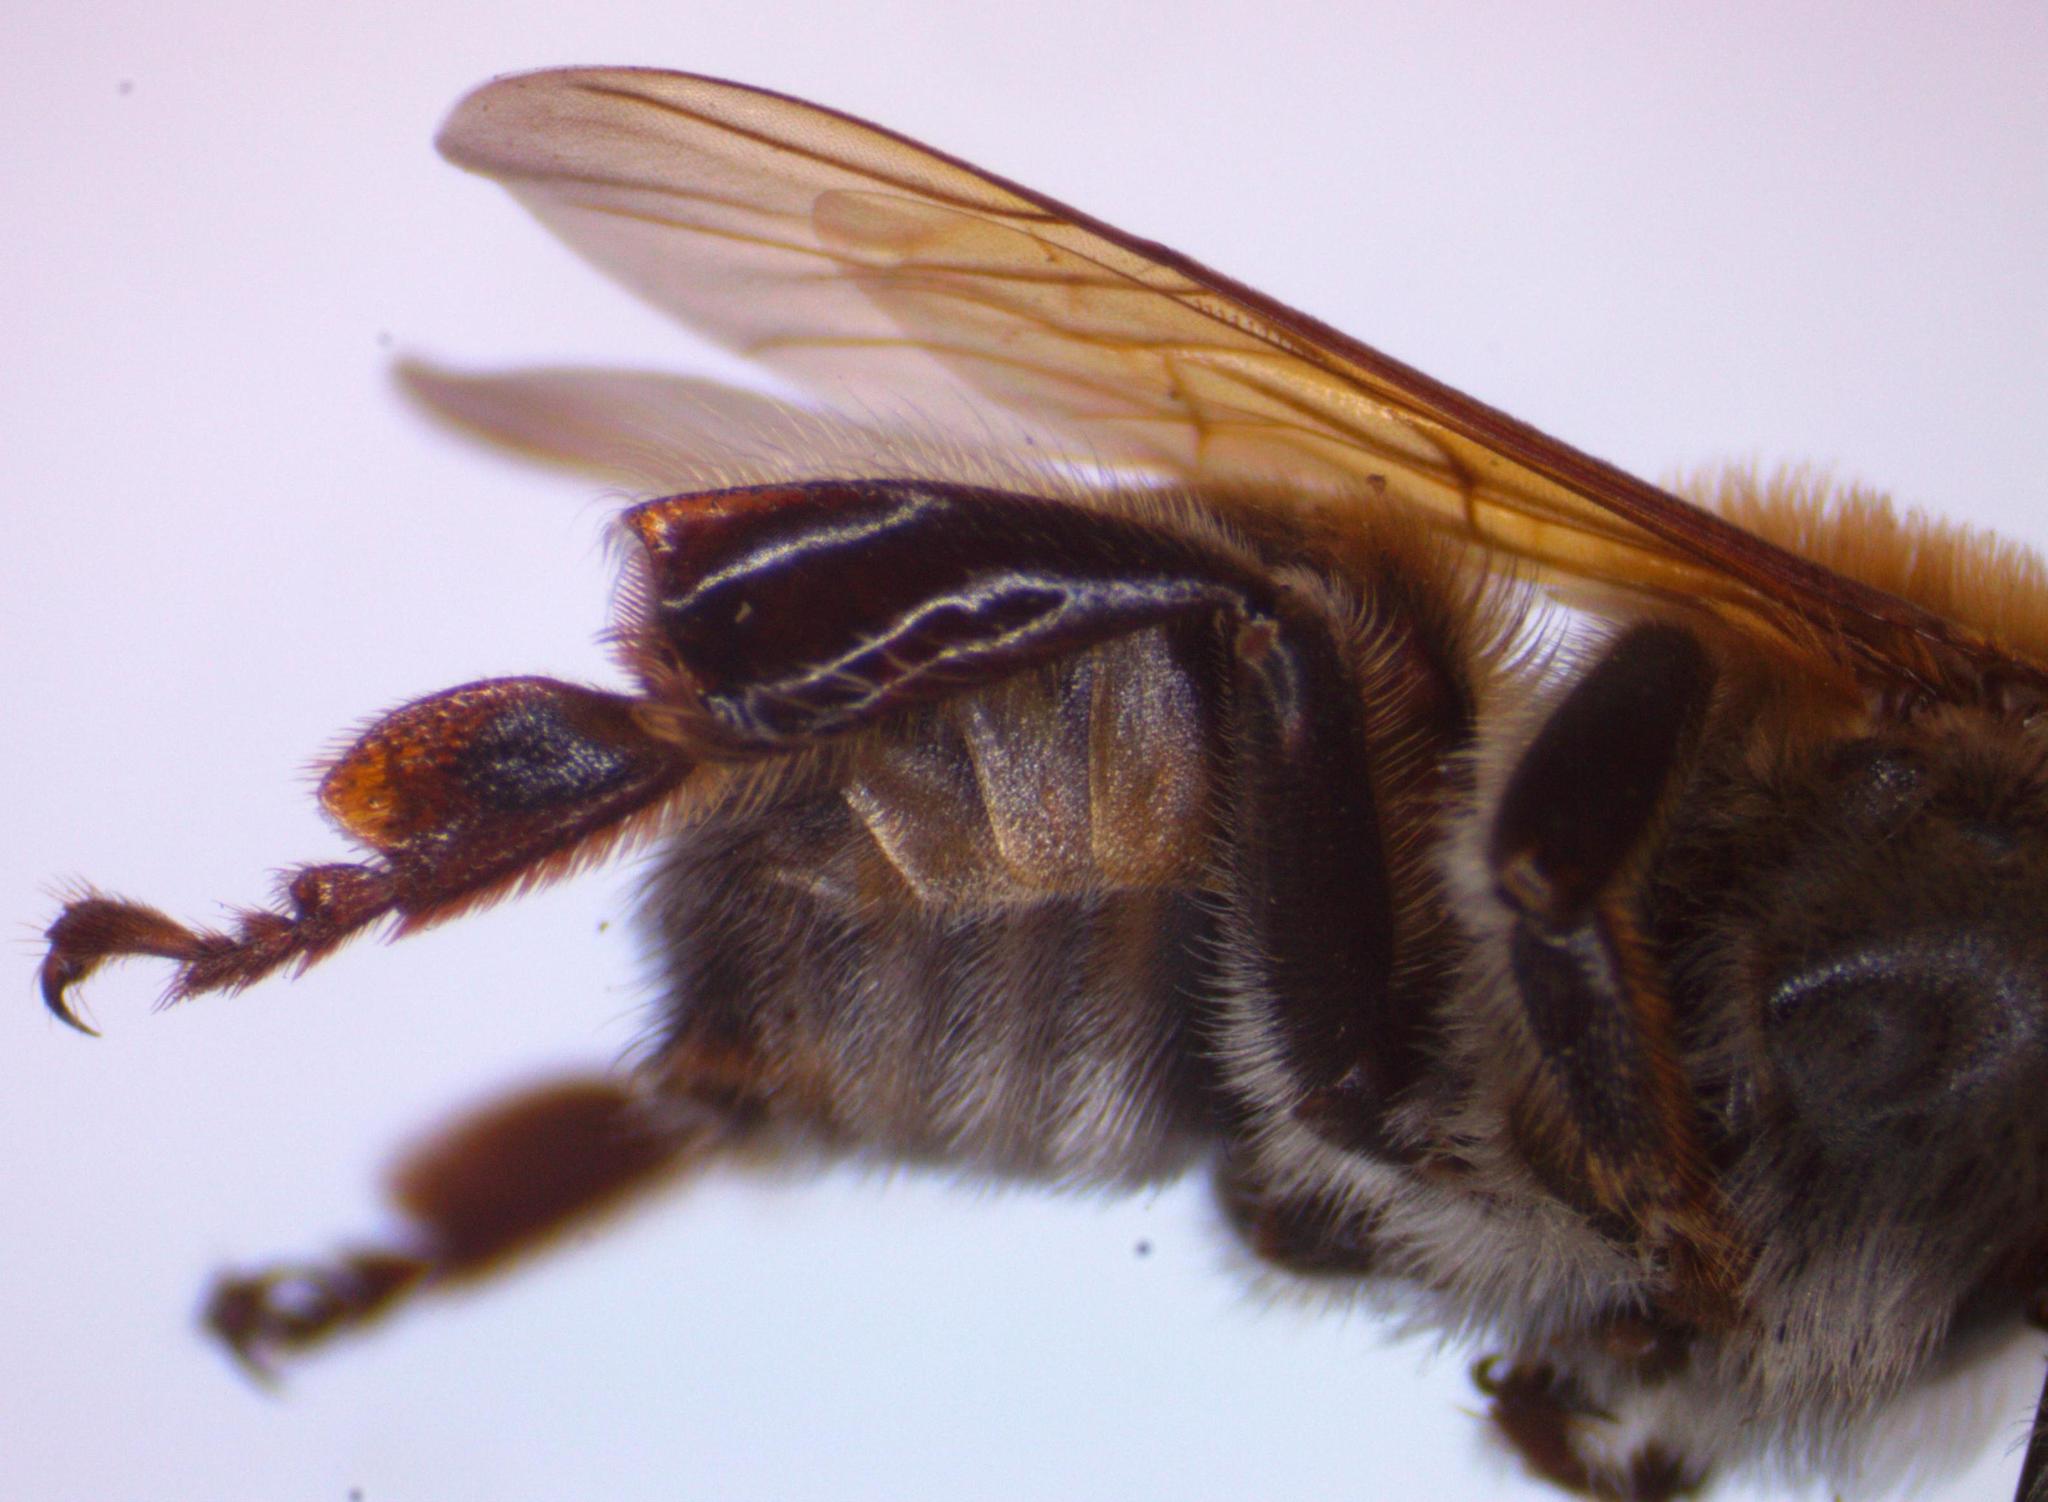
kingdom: Animalia
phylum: Arthropoda
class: Insecta
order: Hymenoptera
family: Apidae
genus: Melipona
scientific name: Melipona beecheii
